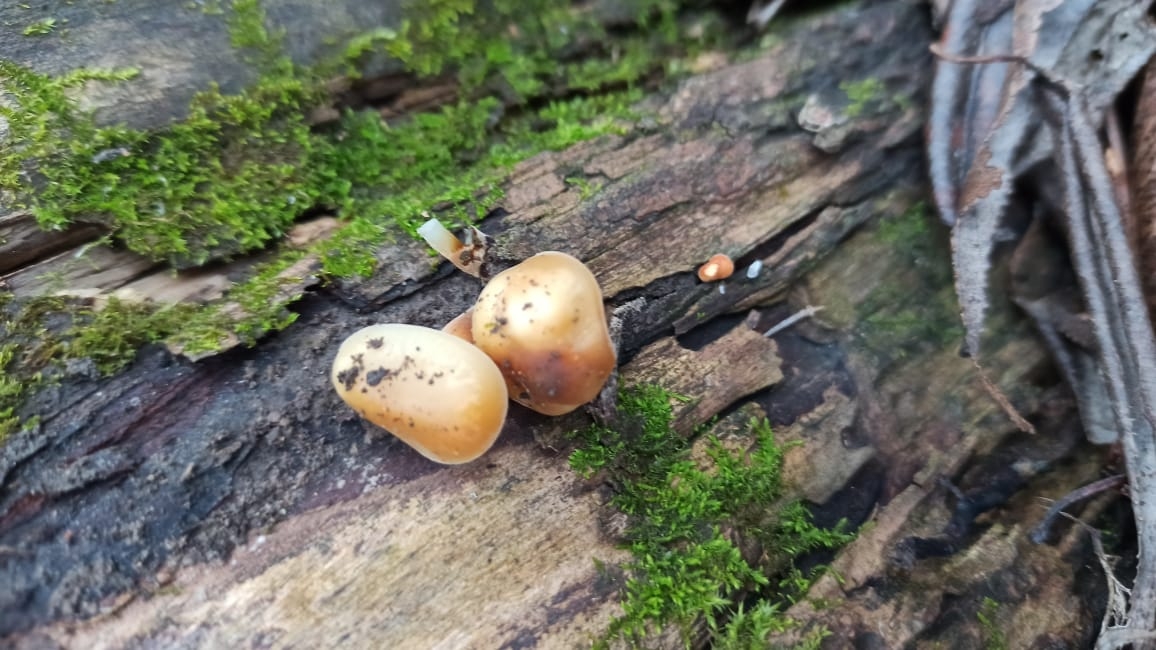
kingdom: Fungi
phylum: Basidiomycota
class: Agaricomycetes
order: Agaricales
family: Physalacriaceae
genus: Flammulina
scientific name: Flammulina
